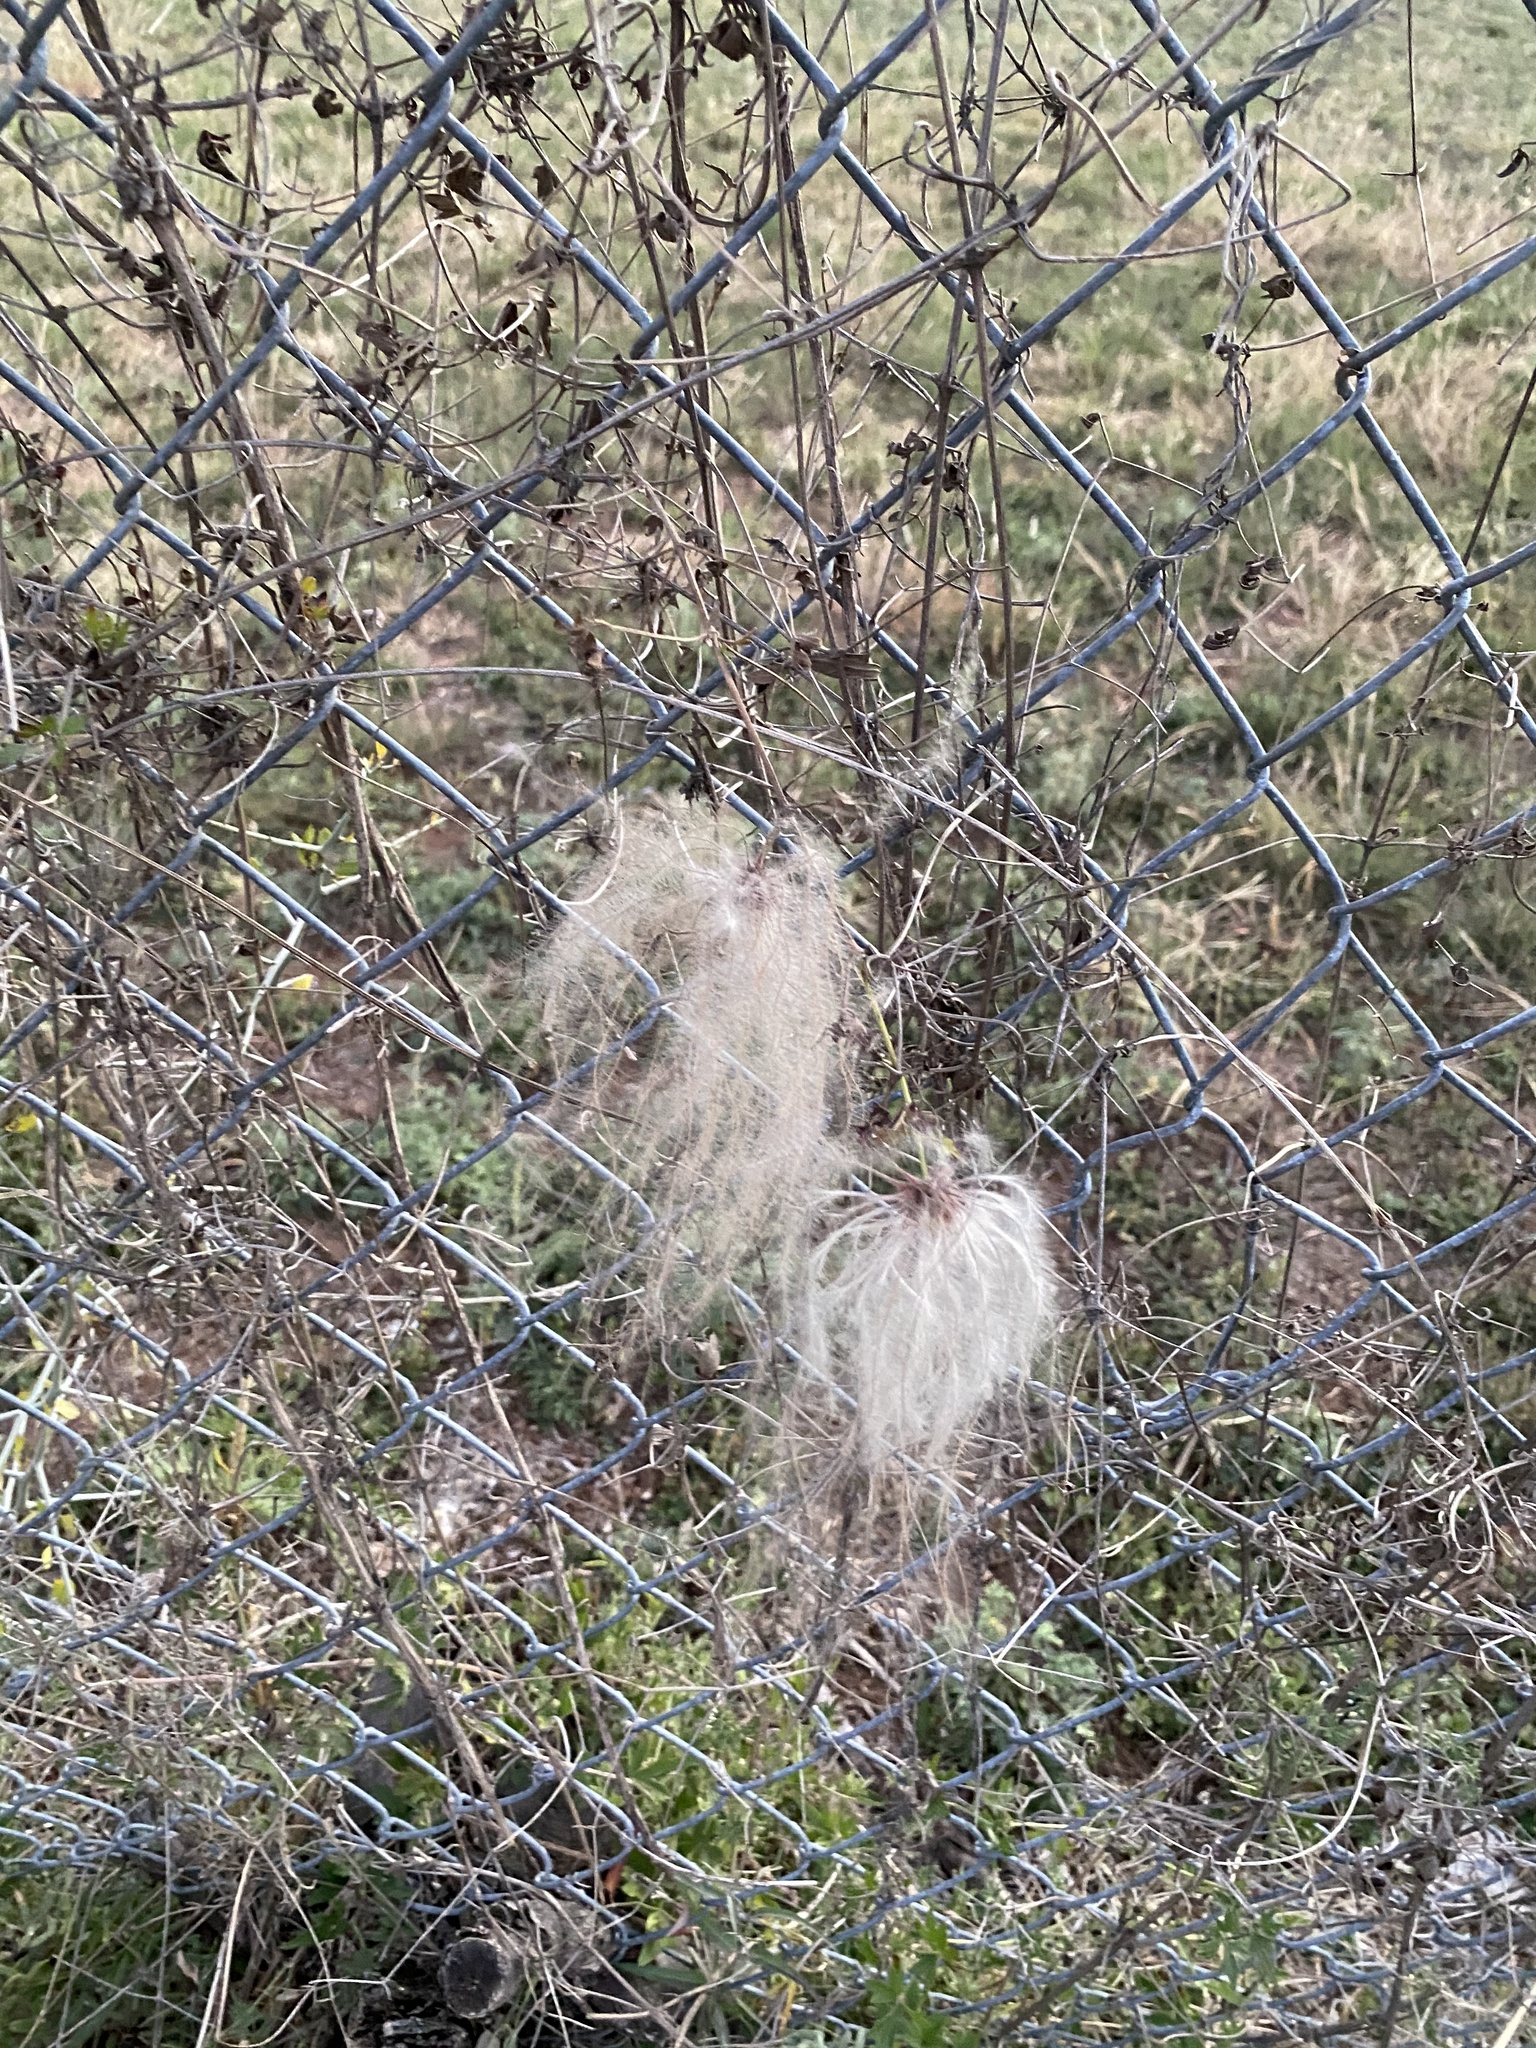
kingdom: Plantae
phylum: Tracheophyta
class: Magnoliopsida
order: Ranunculales
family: Ranunculaceae
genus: Clematis
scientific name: Clematis drummondii
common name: Texas virgin's bower
